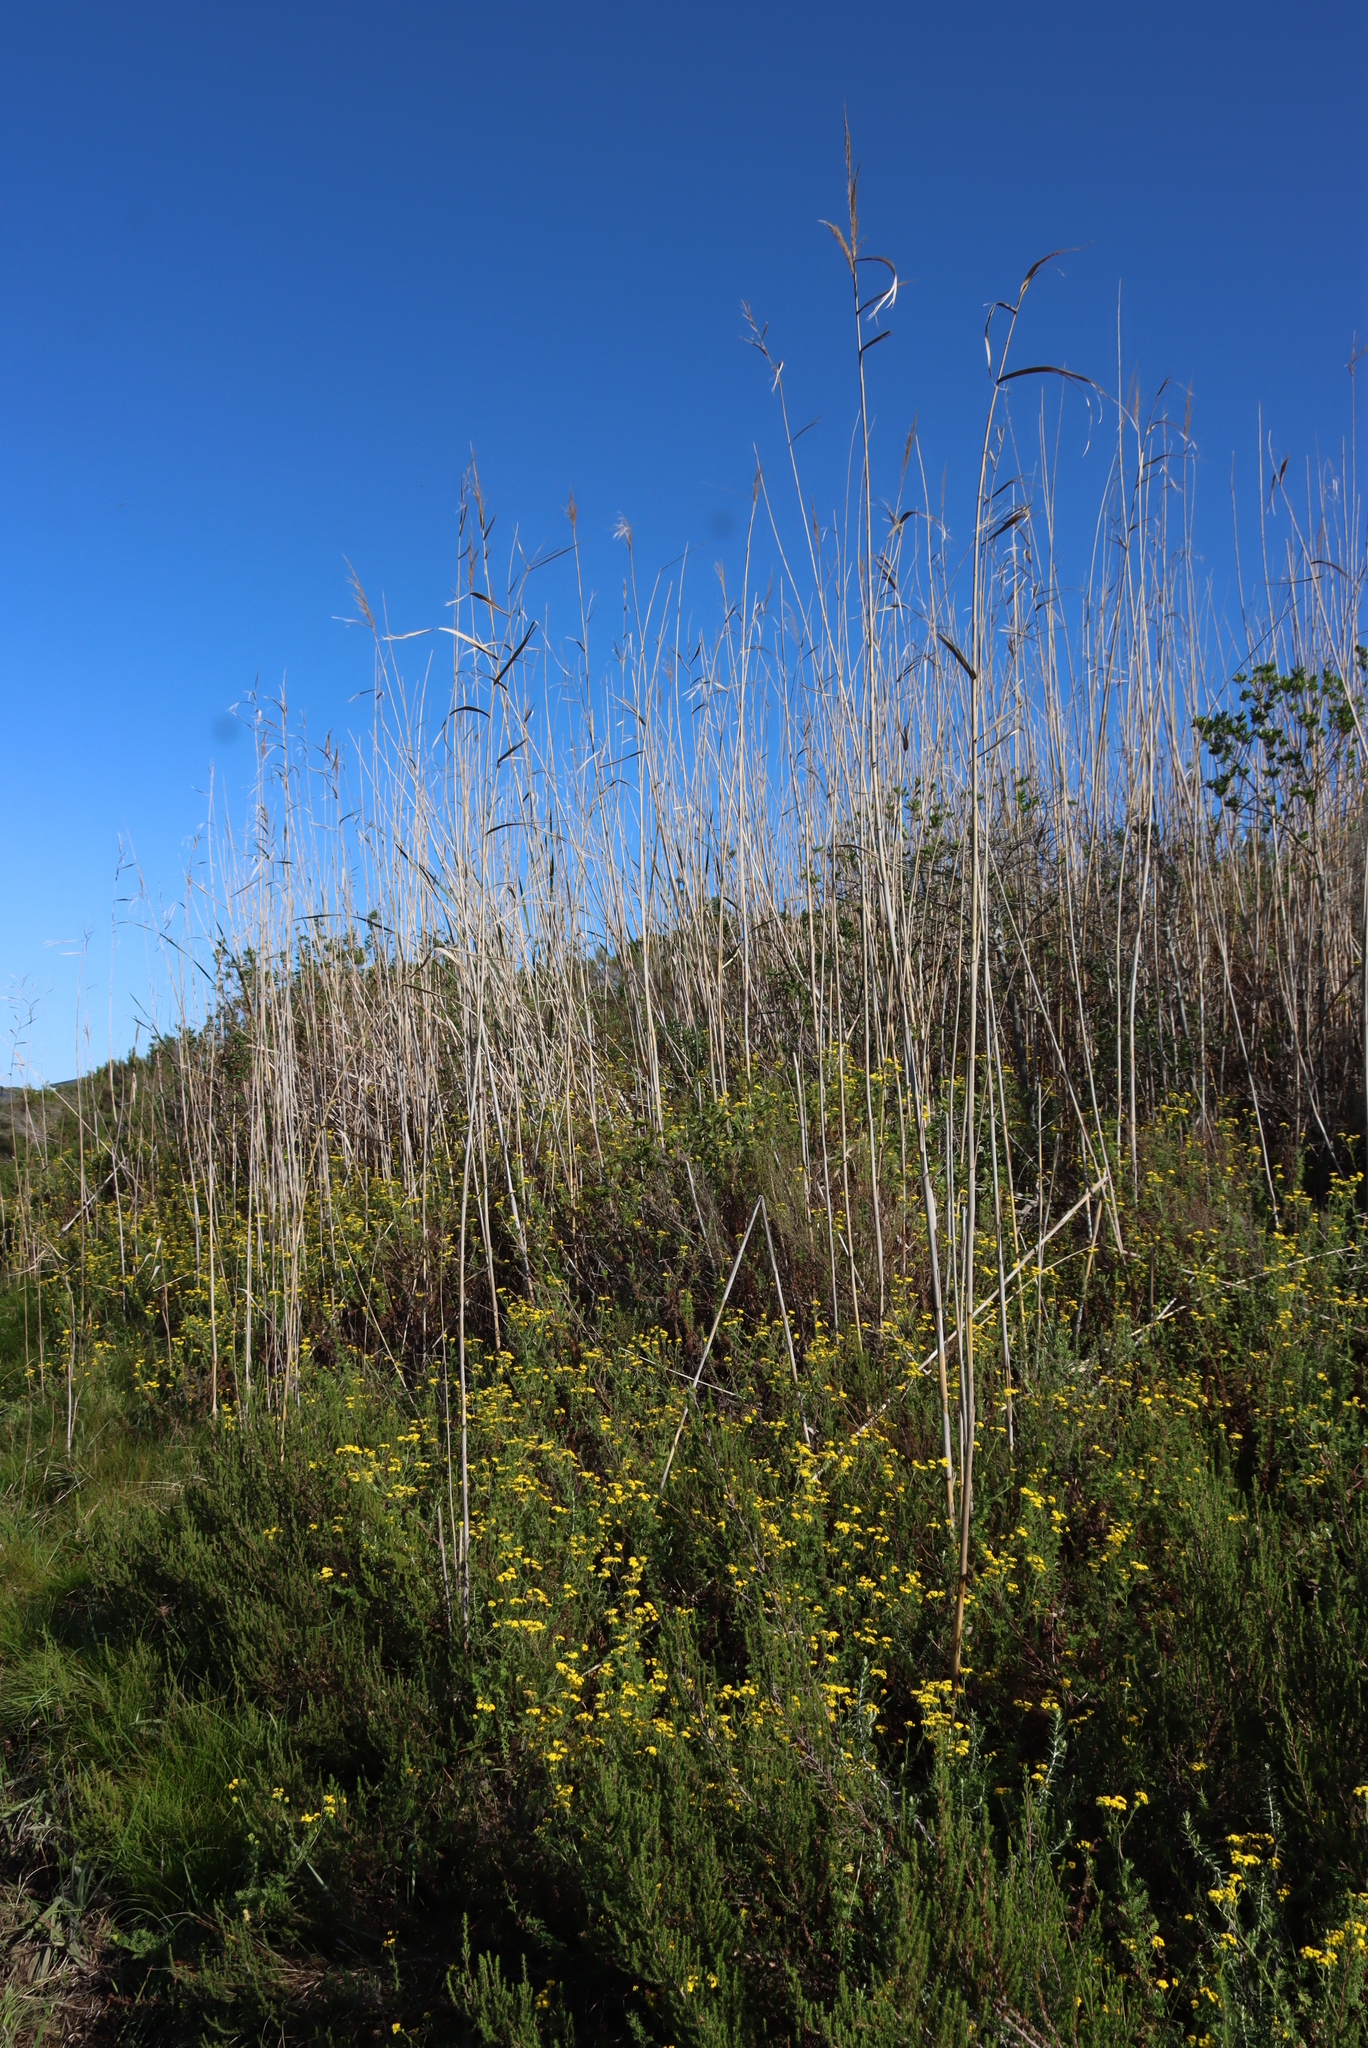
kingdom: Plantae
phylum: Tracheophyta
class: Liliopsida
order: Poales
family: Poaceae
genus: Phragmites
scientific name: Phragmites australis
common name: Common reed
